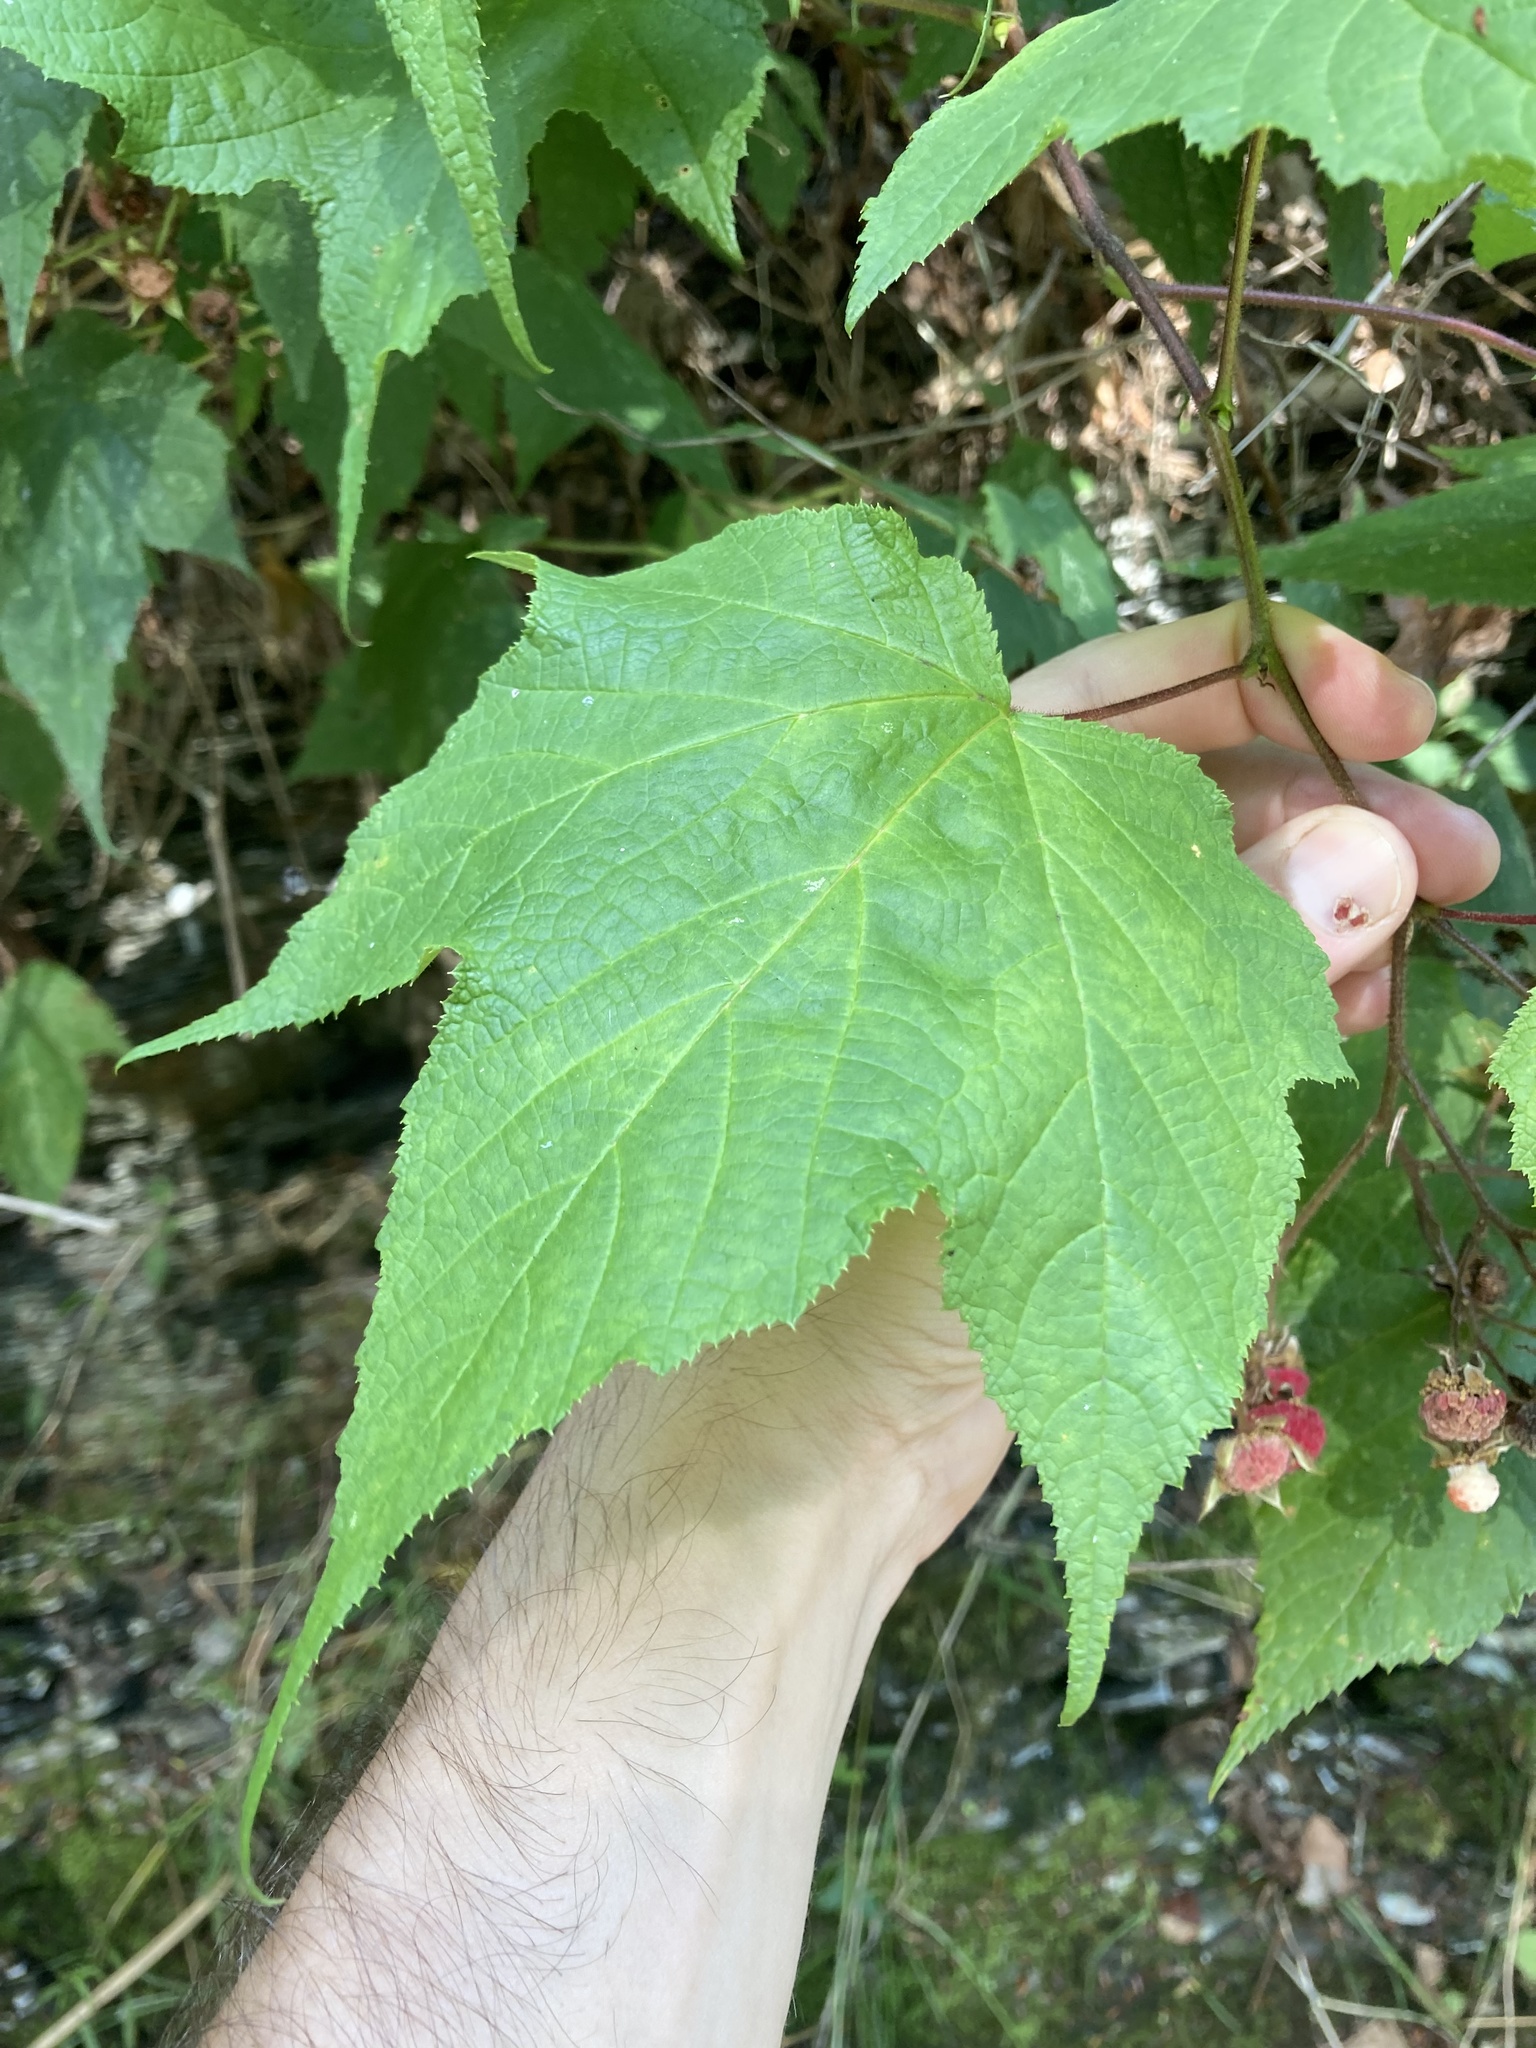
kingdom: Plantae
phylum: Tracheophyta
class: Magnoliopsida
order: Rosales
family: Rosaceae
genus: Rubus
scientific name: Rubus odoratus
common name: Purple-flowered raspberry
